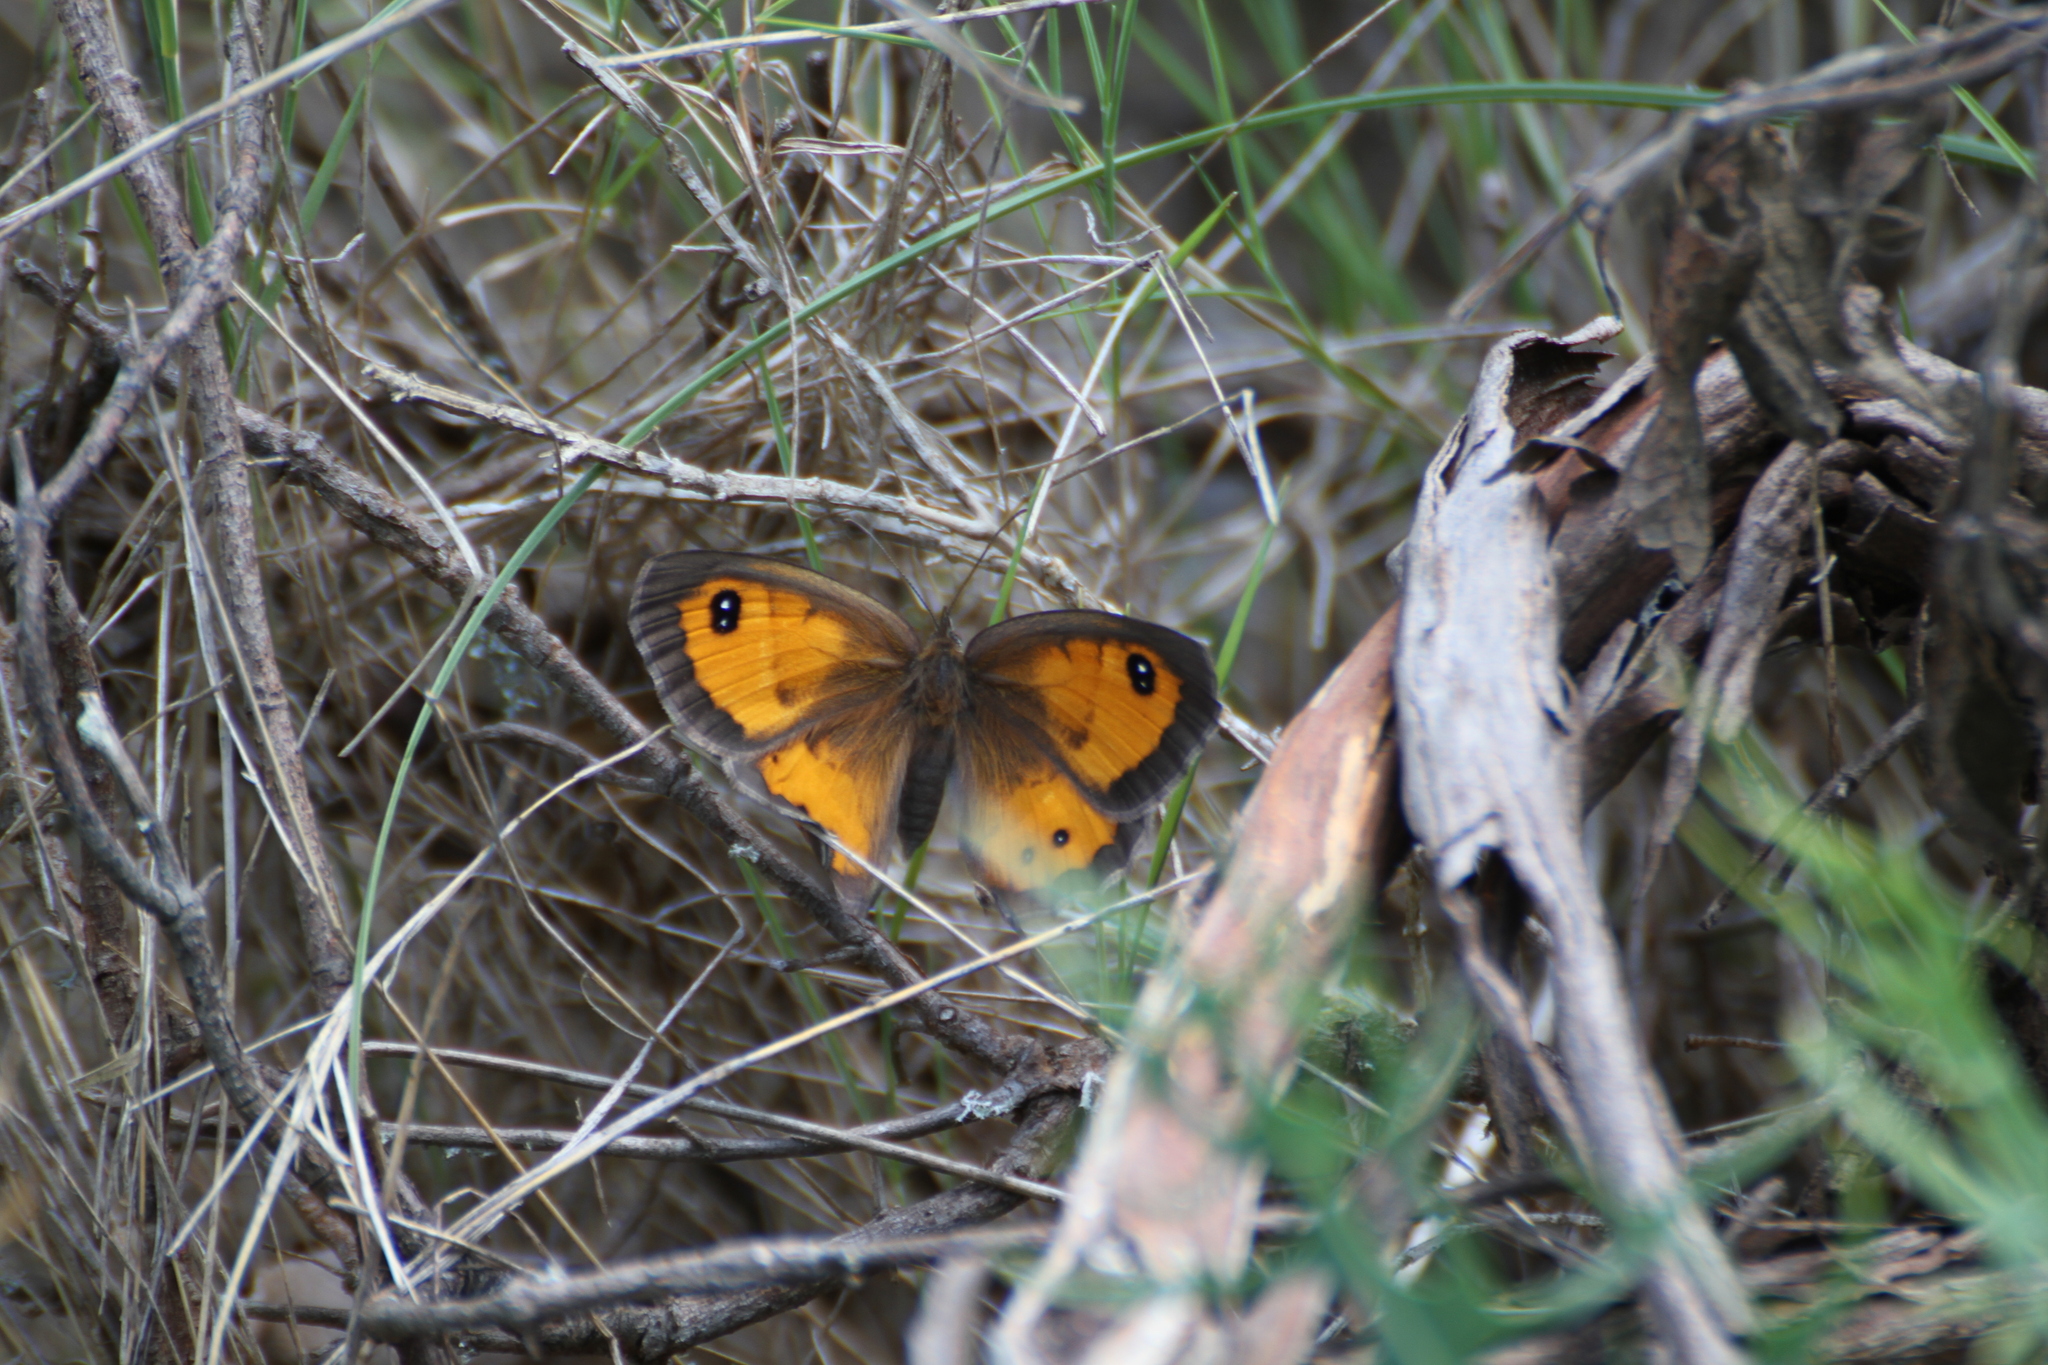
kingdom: Animalia
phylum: Arthropoda
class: Insecta
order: Lepidoptera
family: Nymphalidae
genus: Pyronia
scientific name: Pyronia bathseba
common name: Spanish gatekeeper
